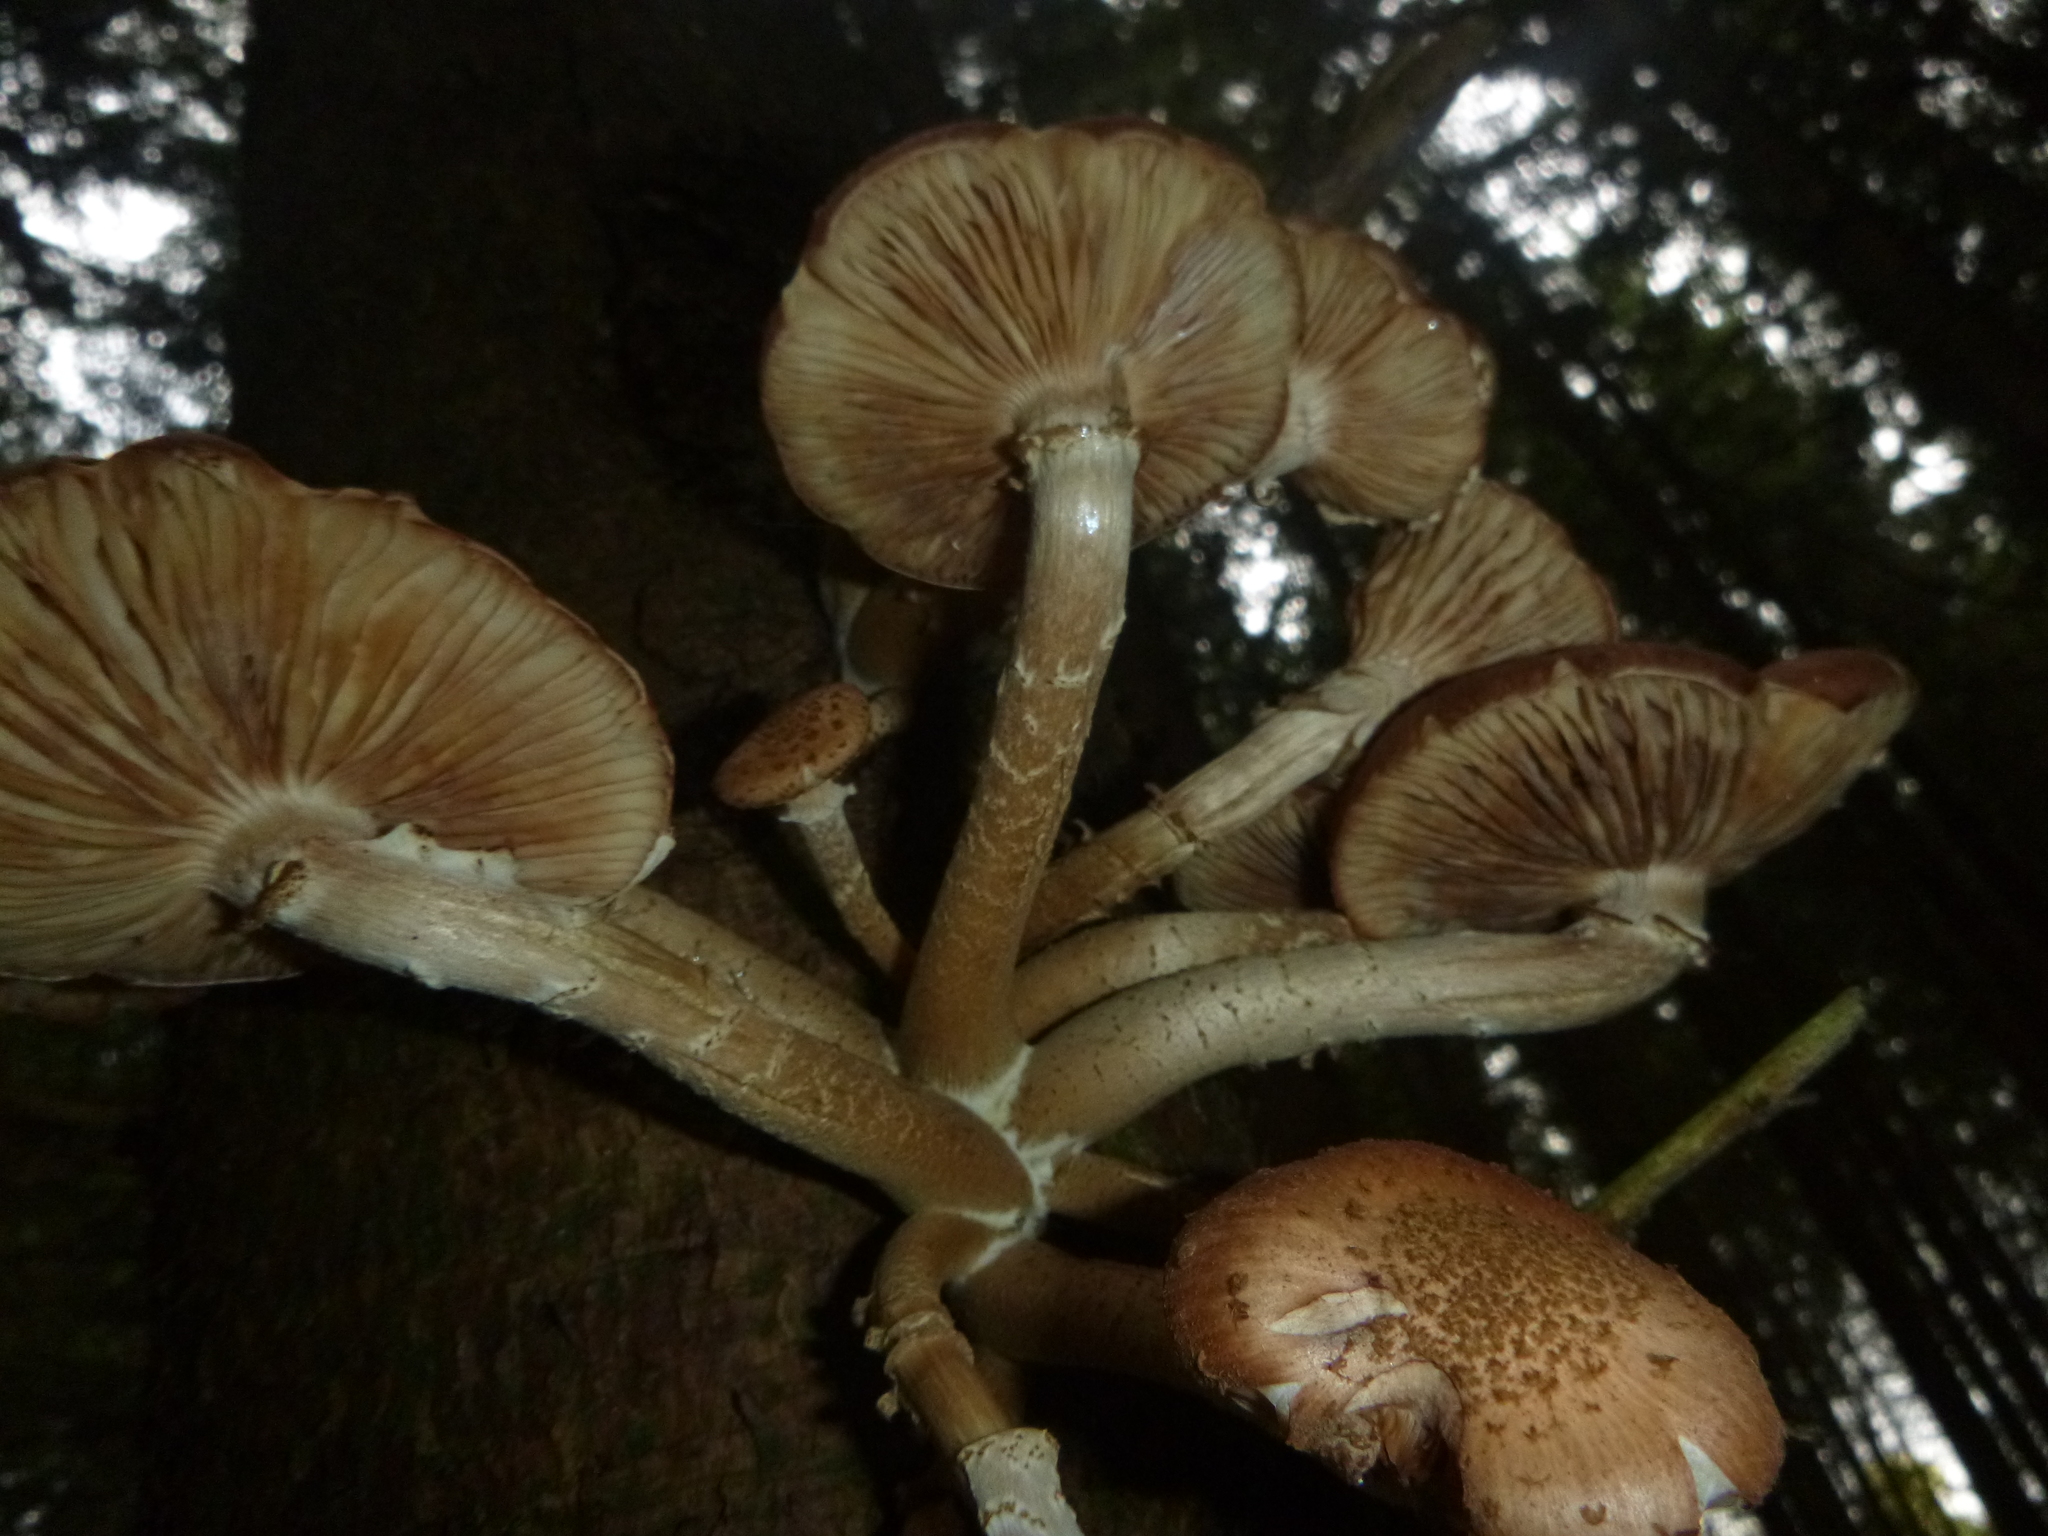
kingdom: Fungi
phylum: Basidiomycota
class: Agaricomycetes
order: Agaricales
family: Physalacriaceae
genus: Armillaria
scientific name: Armillaria ostoyae
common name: Dark honey fungus
